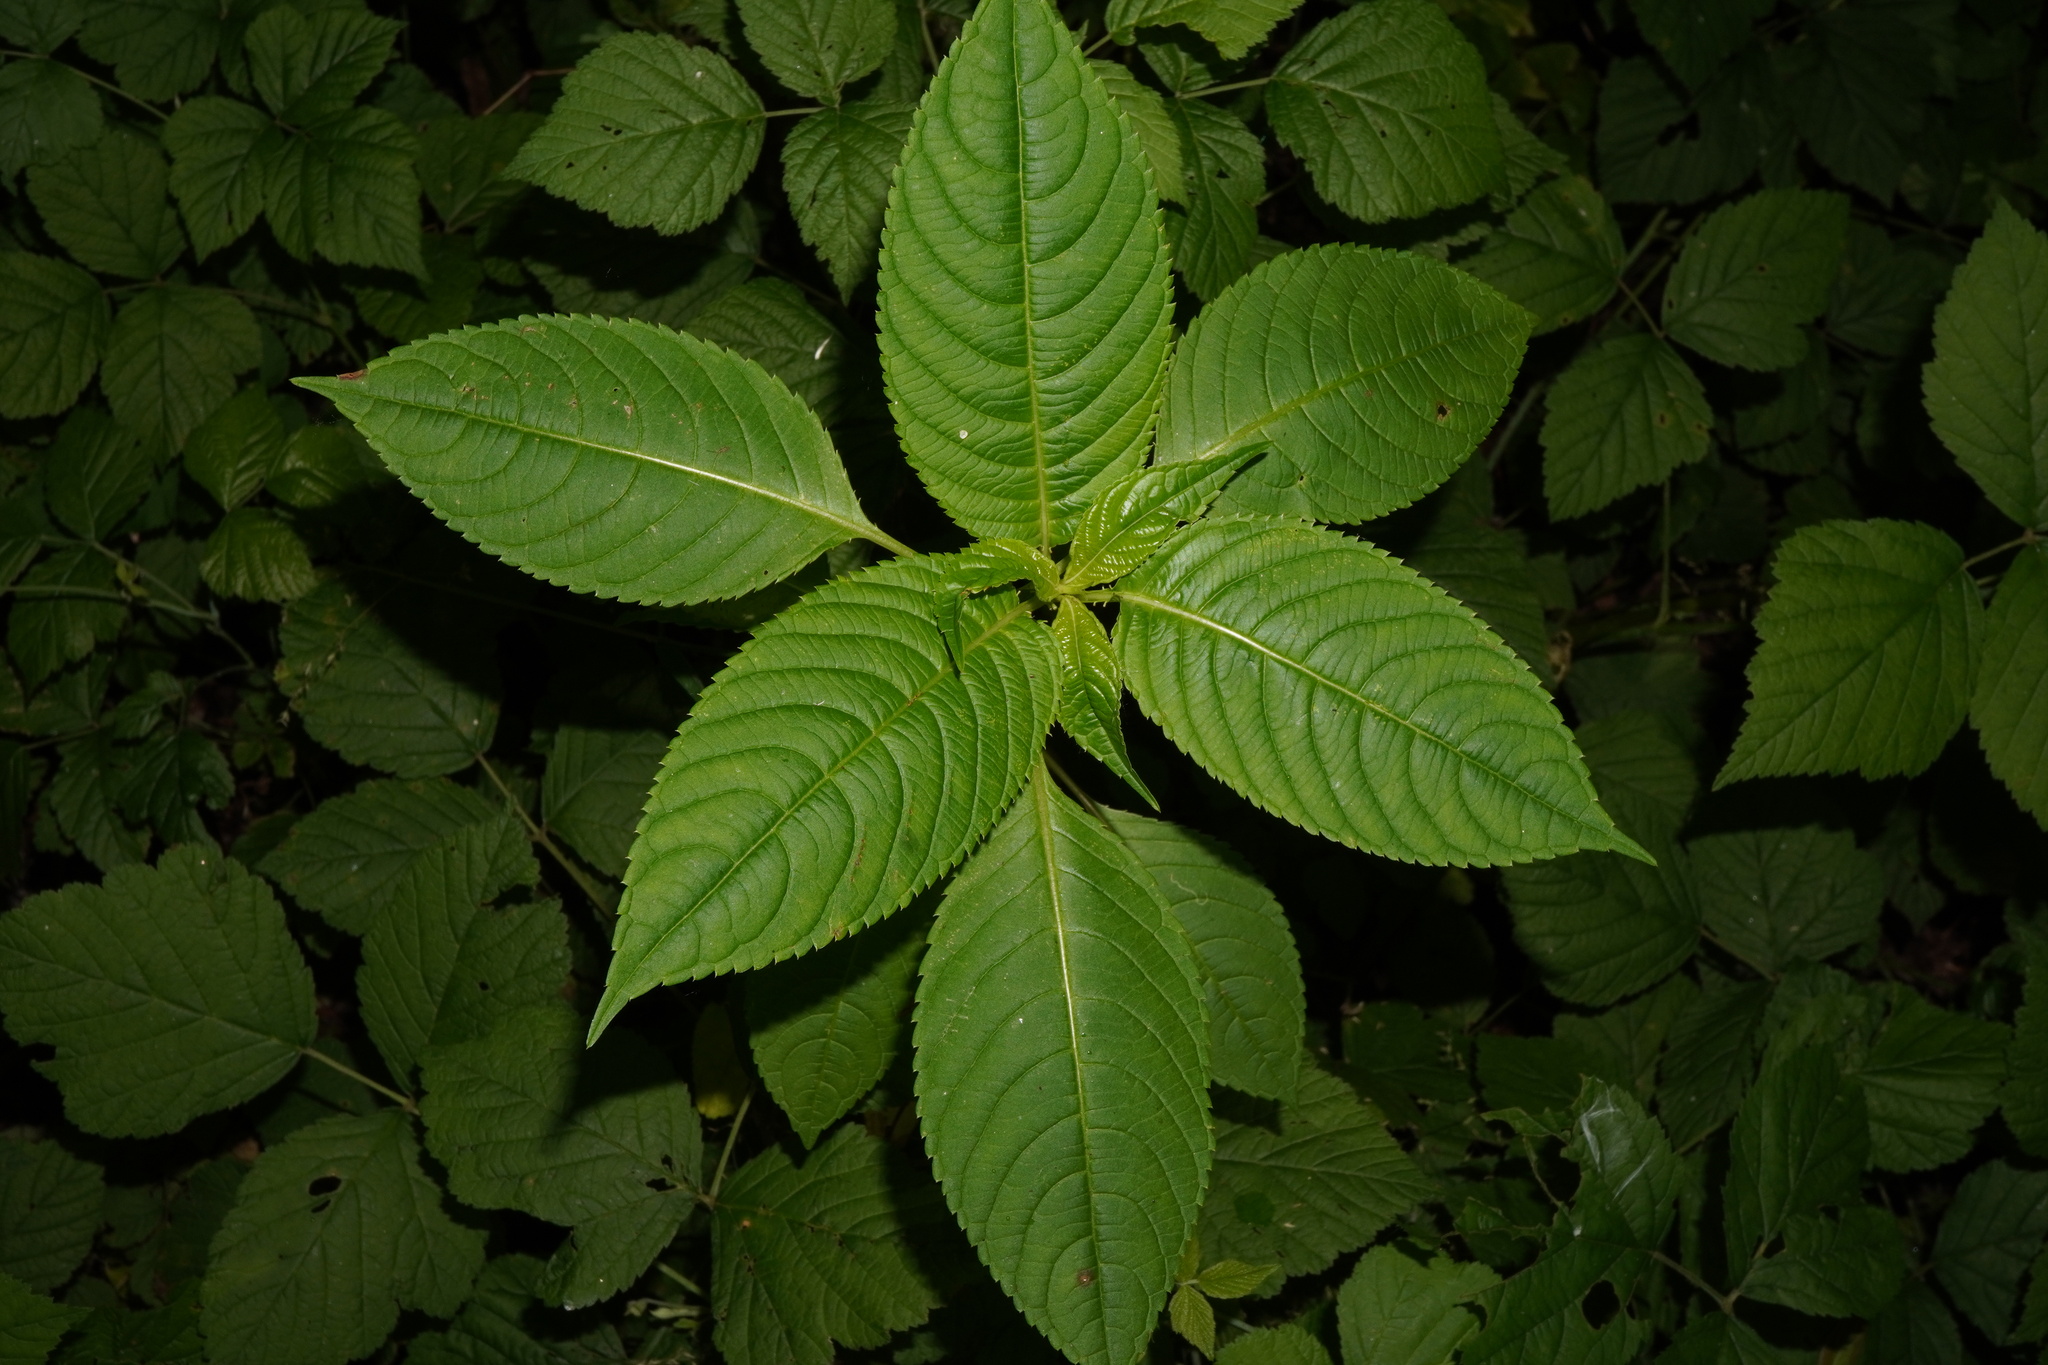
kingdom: Plantae
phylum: Tracheophyta
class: Magnoliopsida
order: Ericales
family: Balsaminaceae
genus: Impatiens
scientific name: Impatiens glandulifera
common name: Himalayan balsam
